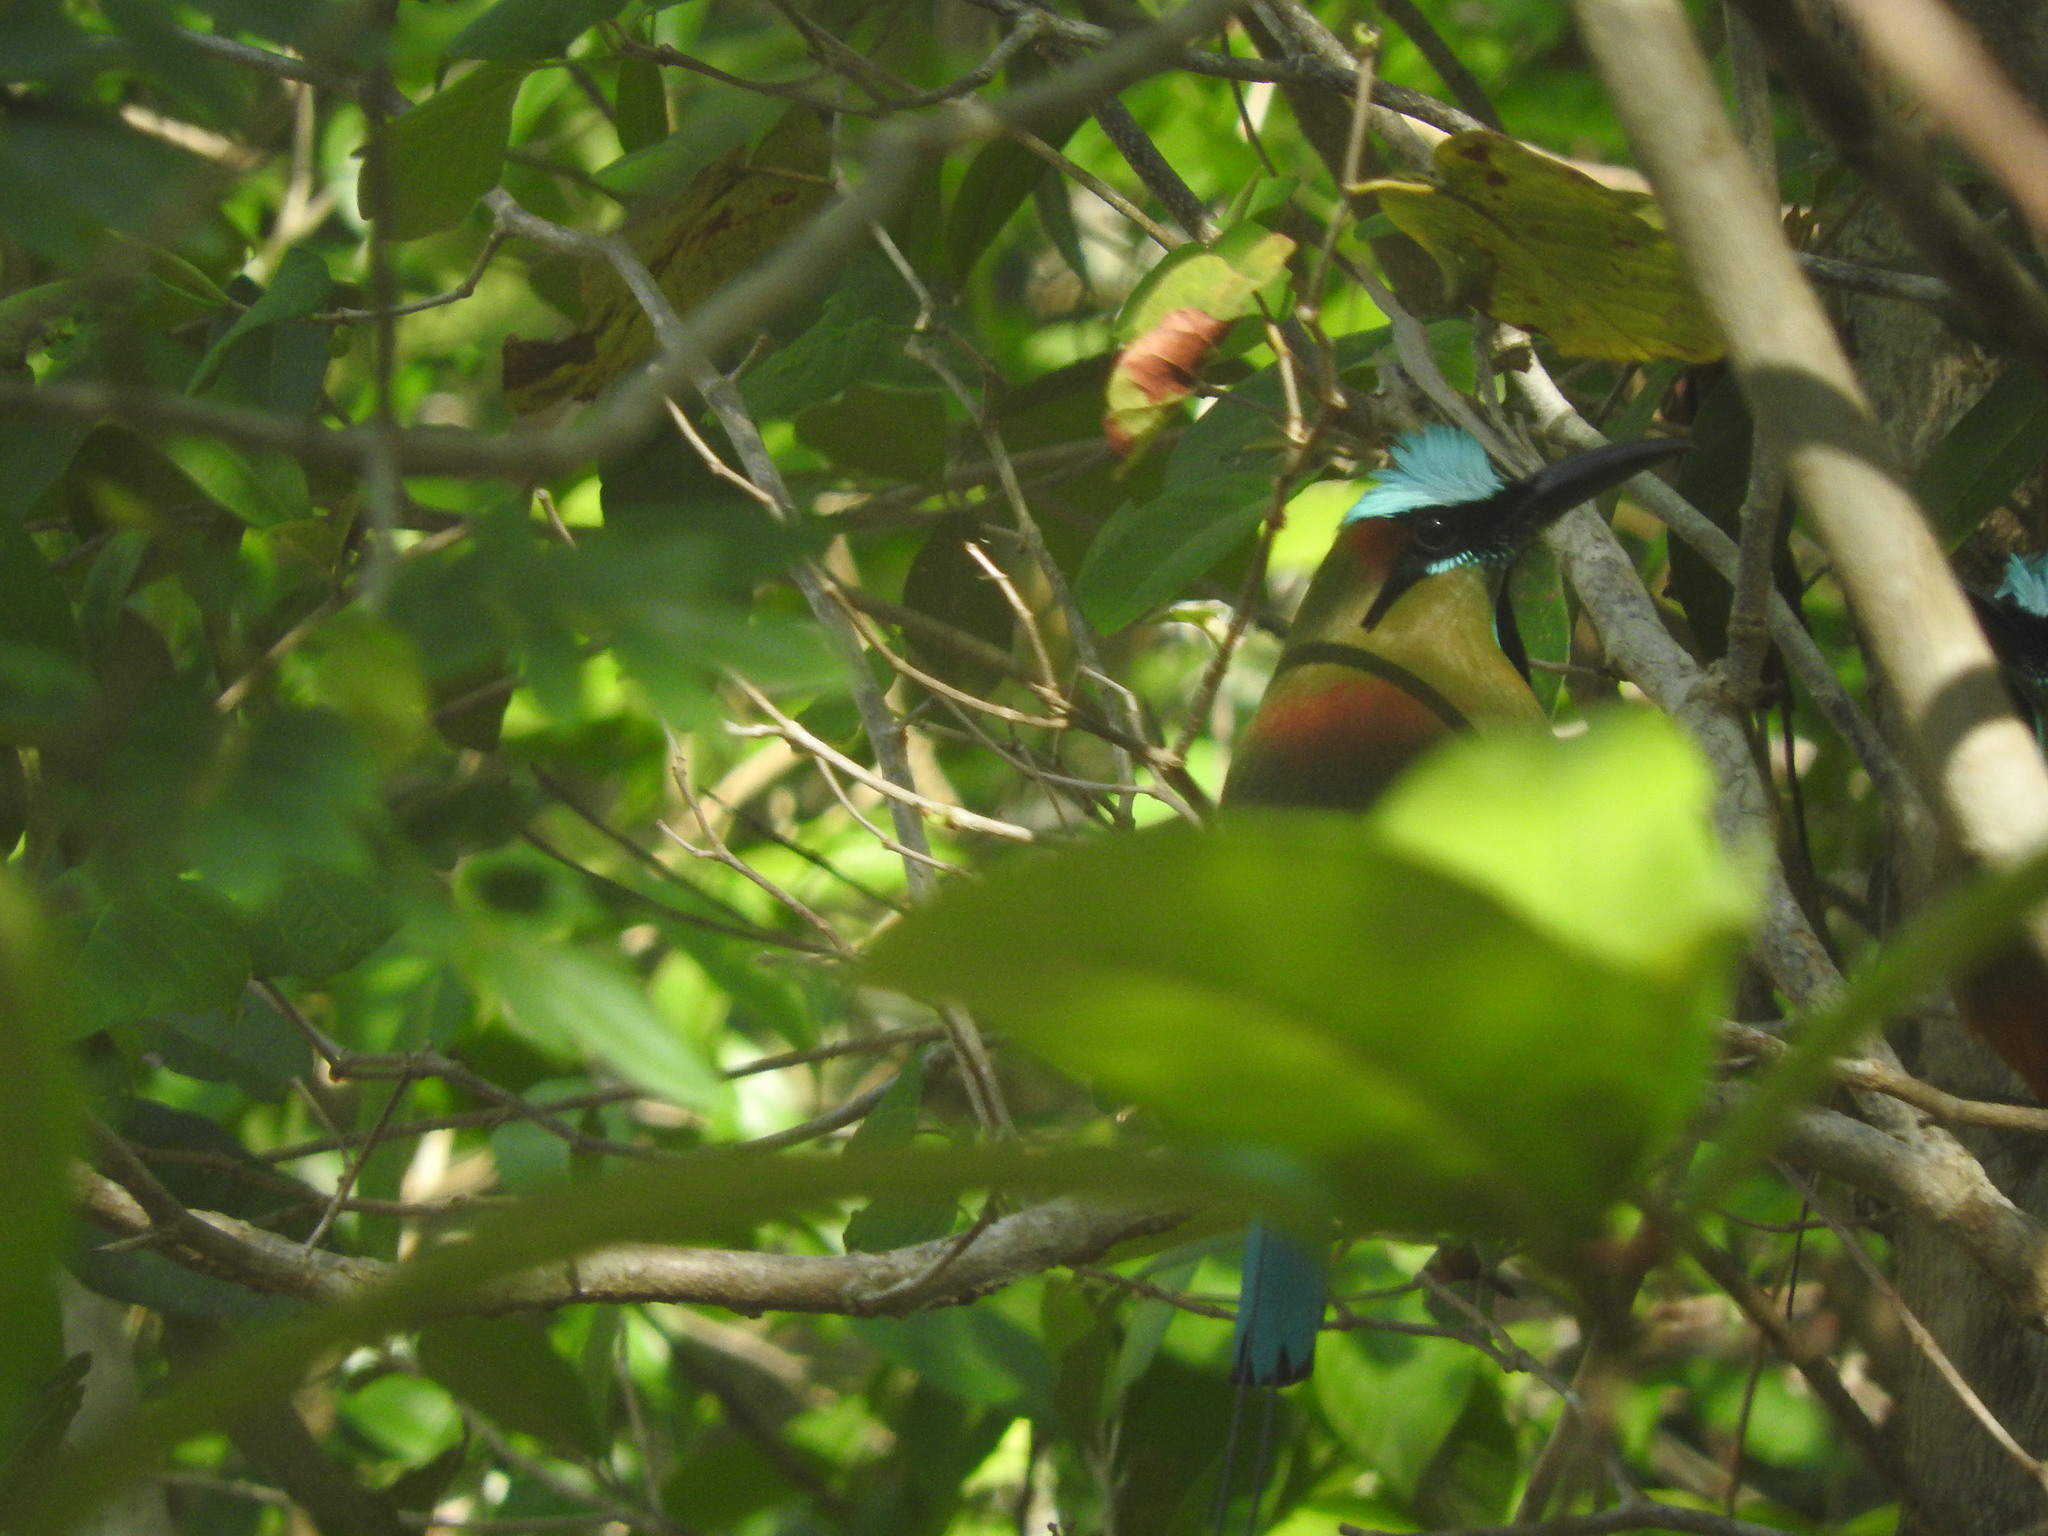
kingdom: Animalia
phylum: Chordata
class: Aves
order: Coraciiformes
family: Momotidae
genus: Eumomota
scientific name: Eumomota superciliosa
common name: Turquoise-browed motmot
